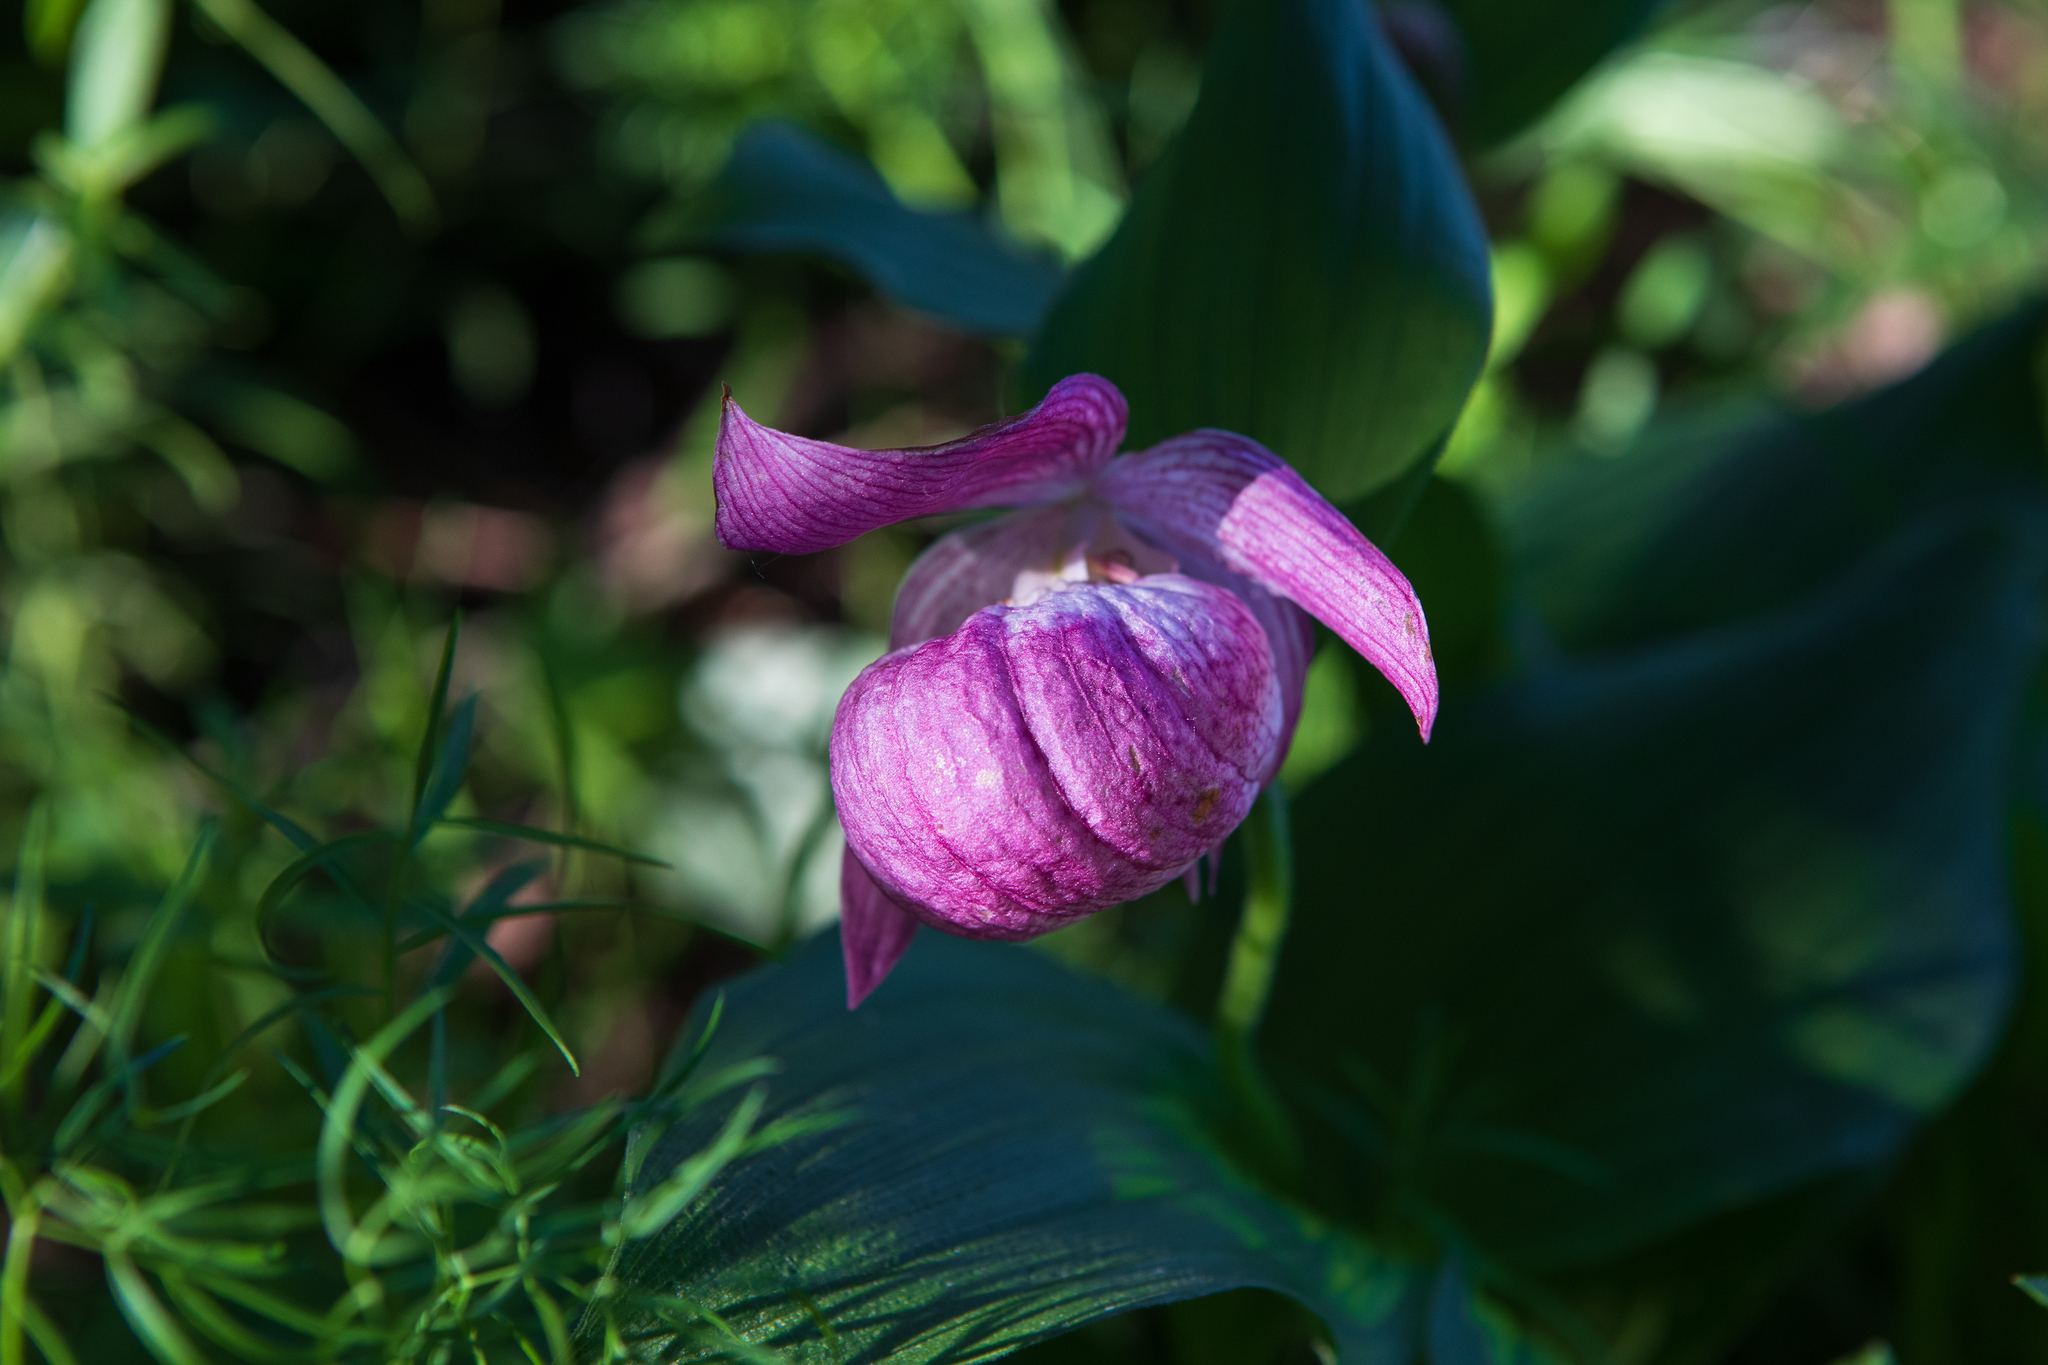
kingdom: Plantae
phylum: Tracheophyta
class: Liliopsida
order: Asparagales
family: Orchidaceae
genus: Cypripedium
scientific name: Cypripedium macranthos
